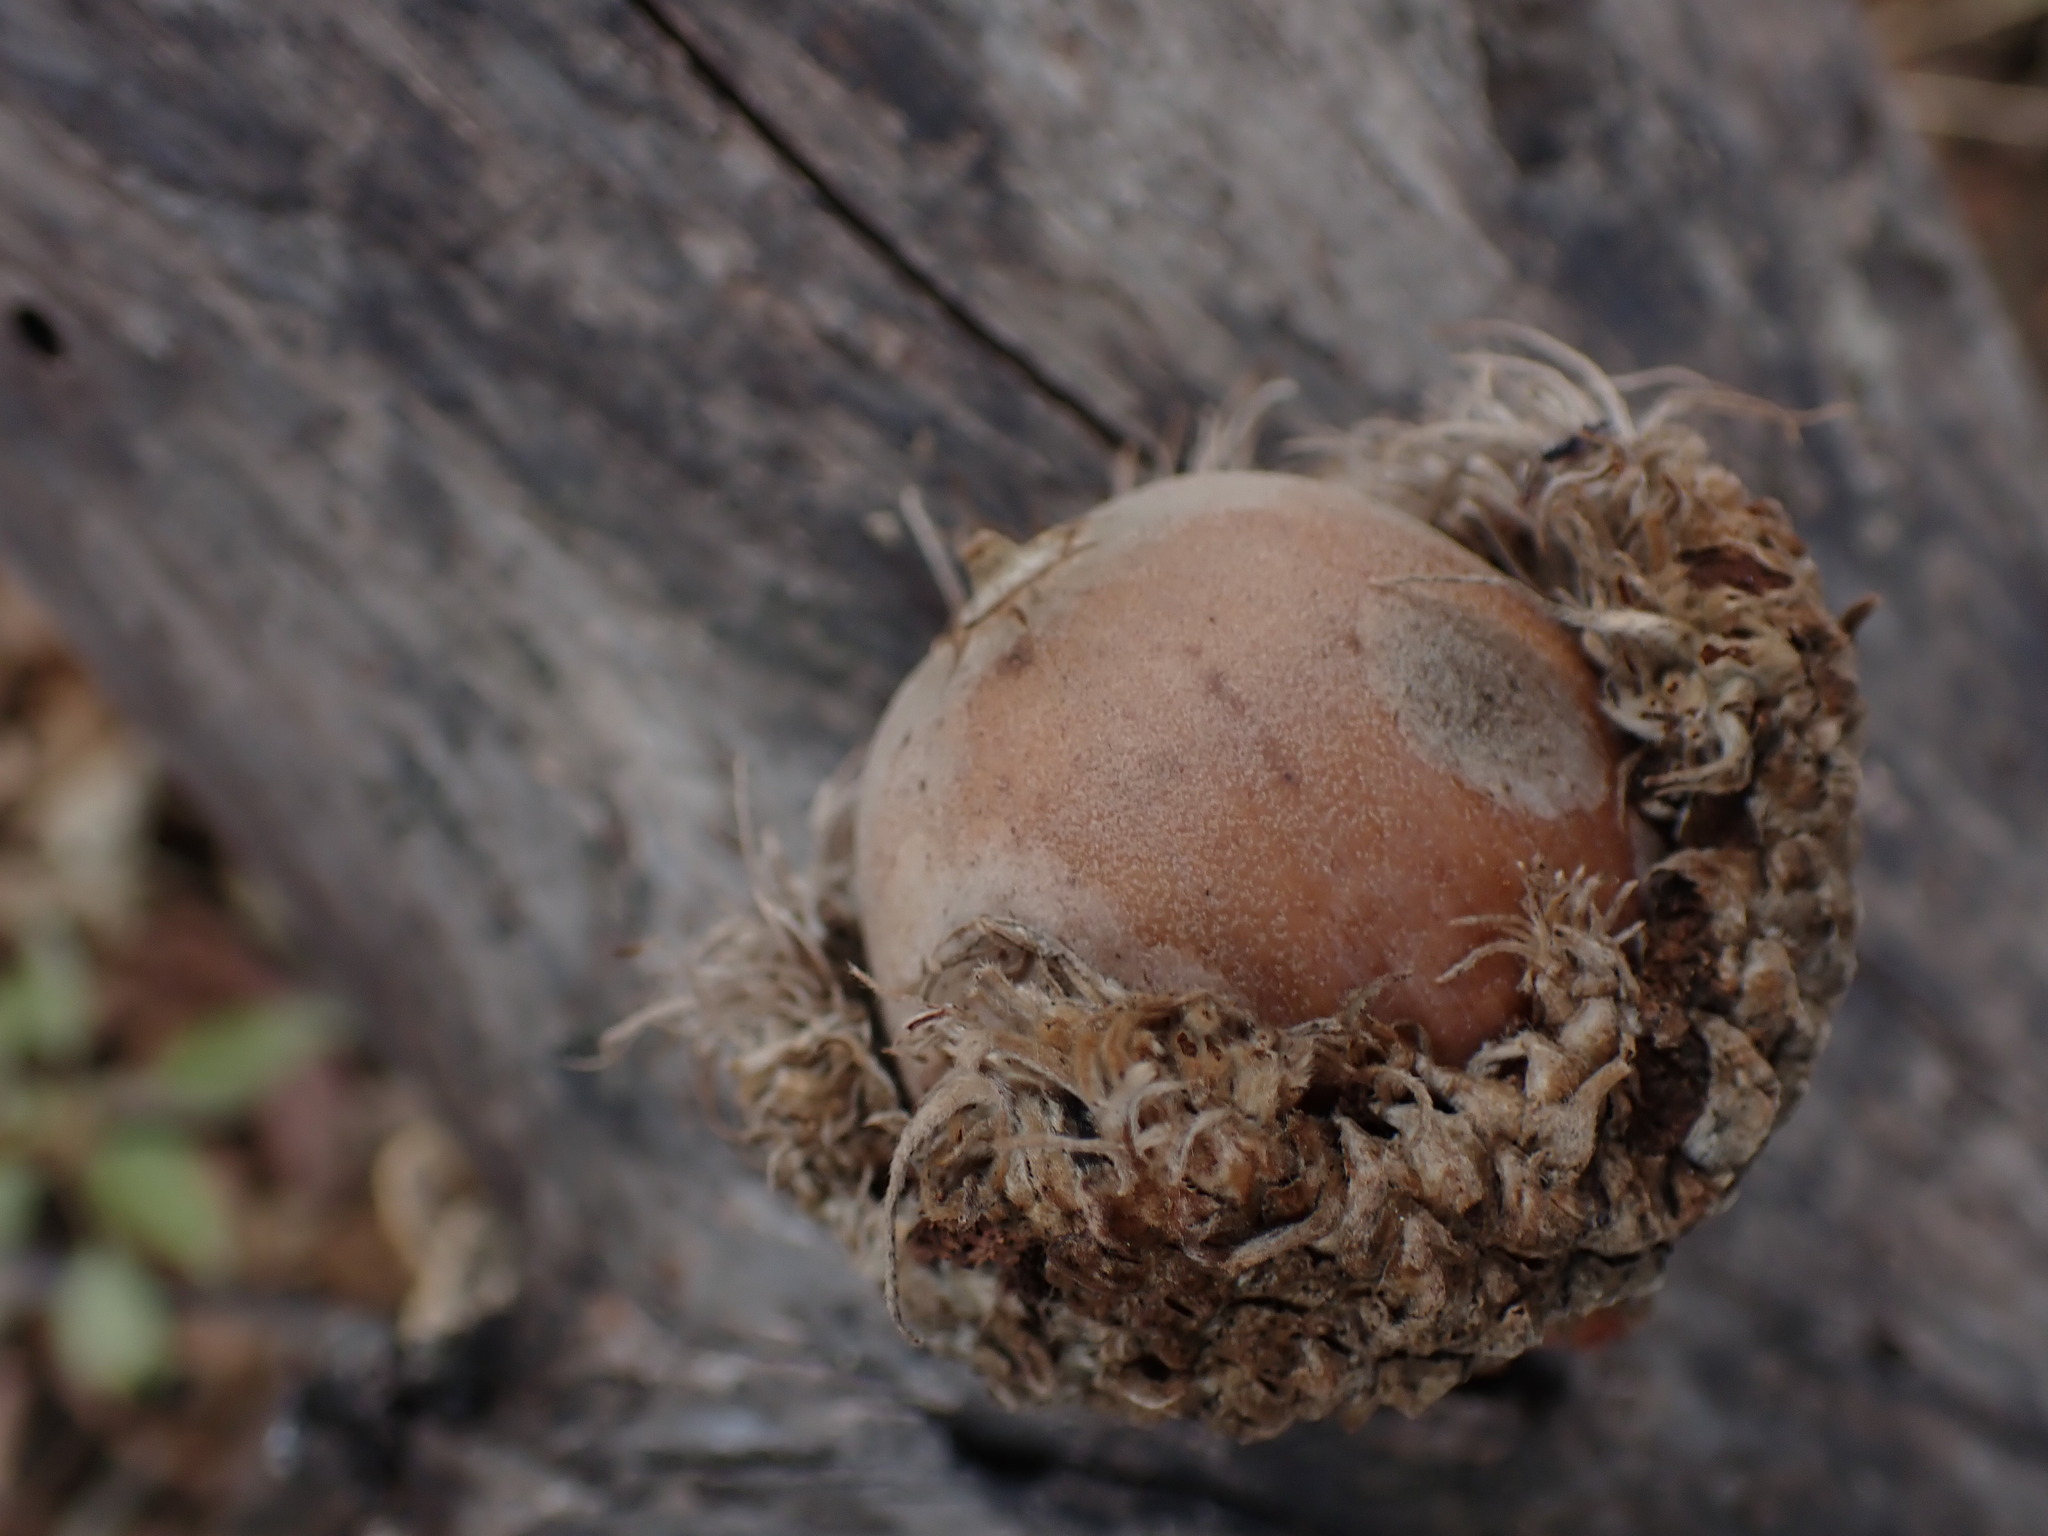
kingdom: Plantae
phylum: Tracheophyta
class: Magnoliopsida
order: Fagales
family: Fagaceae
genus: Quercus
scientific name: Quercus macrocarpa
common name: Bur oak
